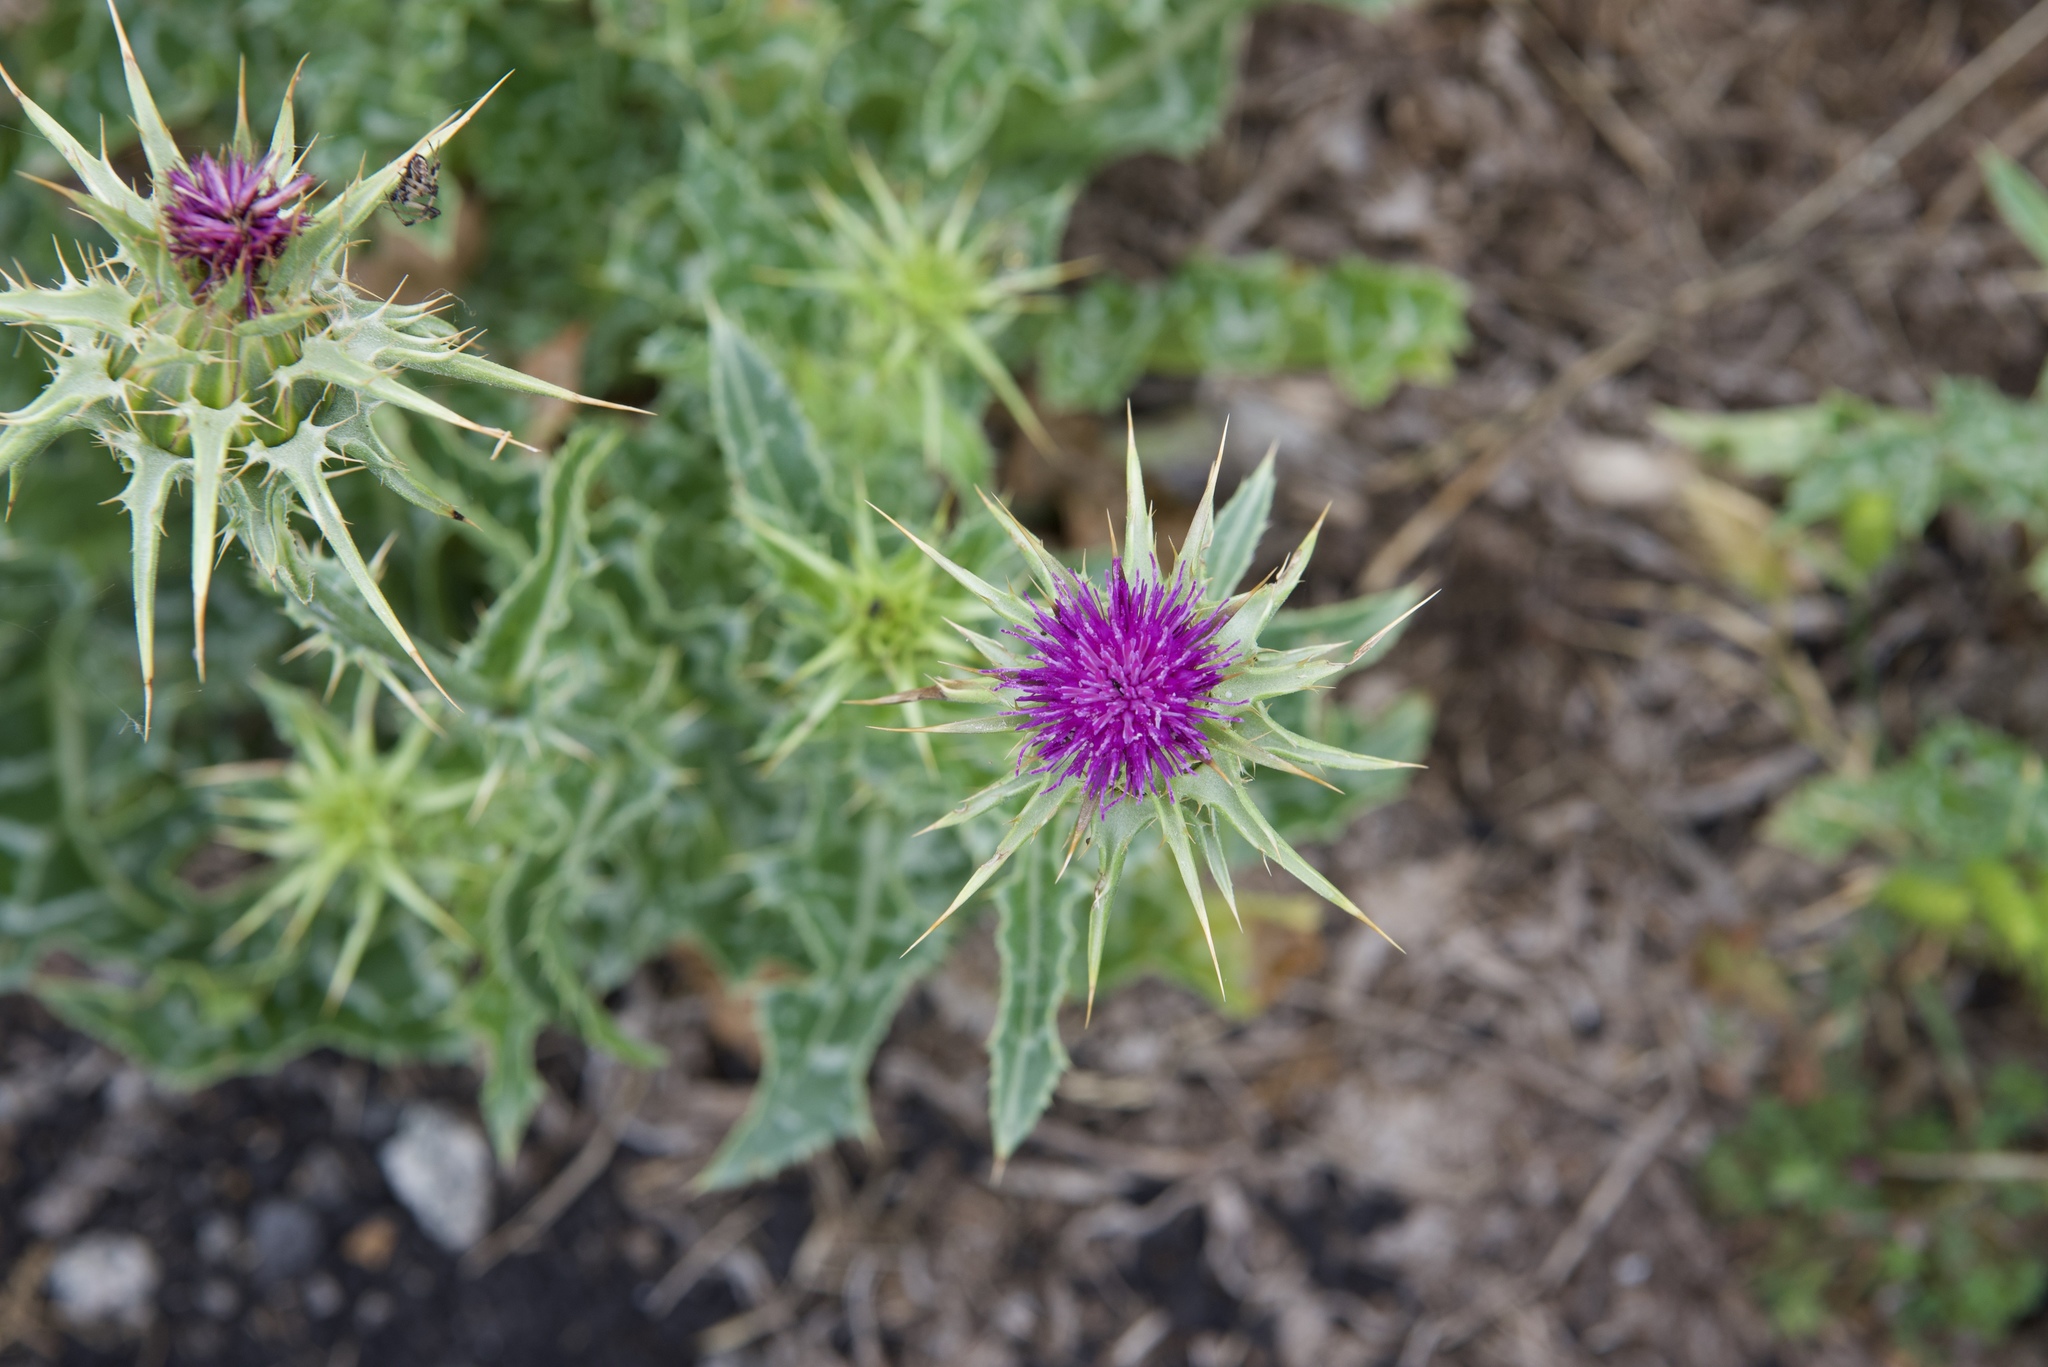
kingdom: Plantae
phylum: Tracheophyta
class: Magnoliopsida
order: Asterales
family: Asteraceae
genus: Silybum
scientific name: Silybum marianum
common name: Milk thistle
